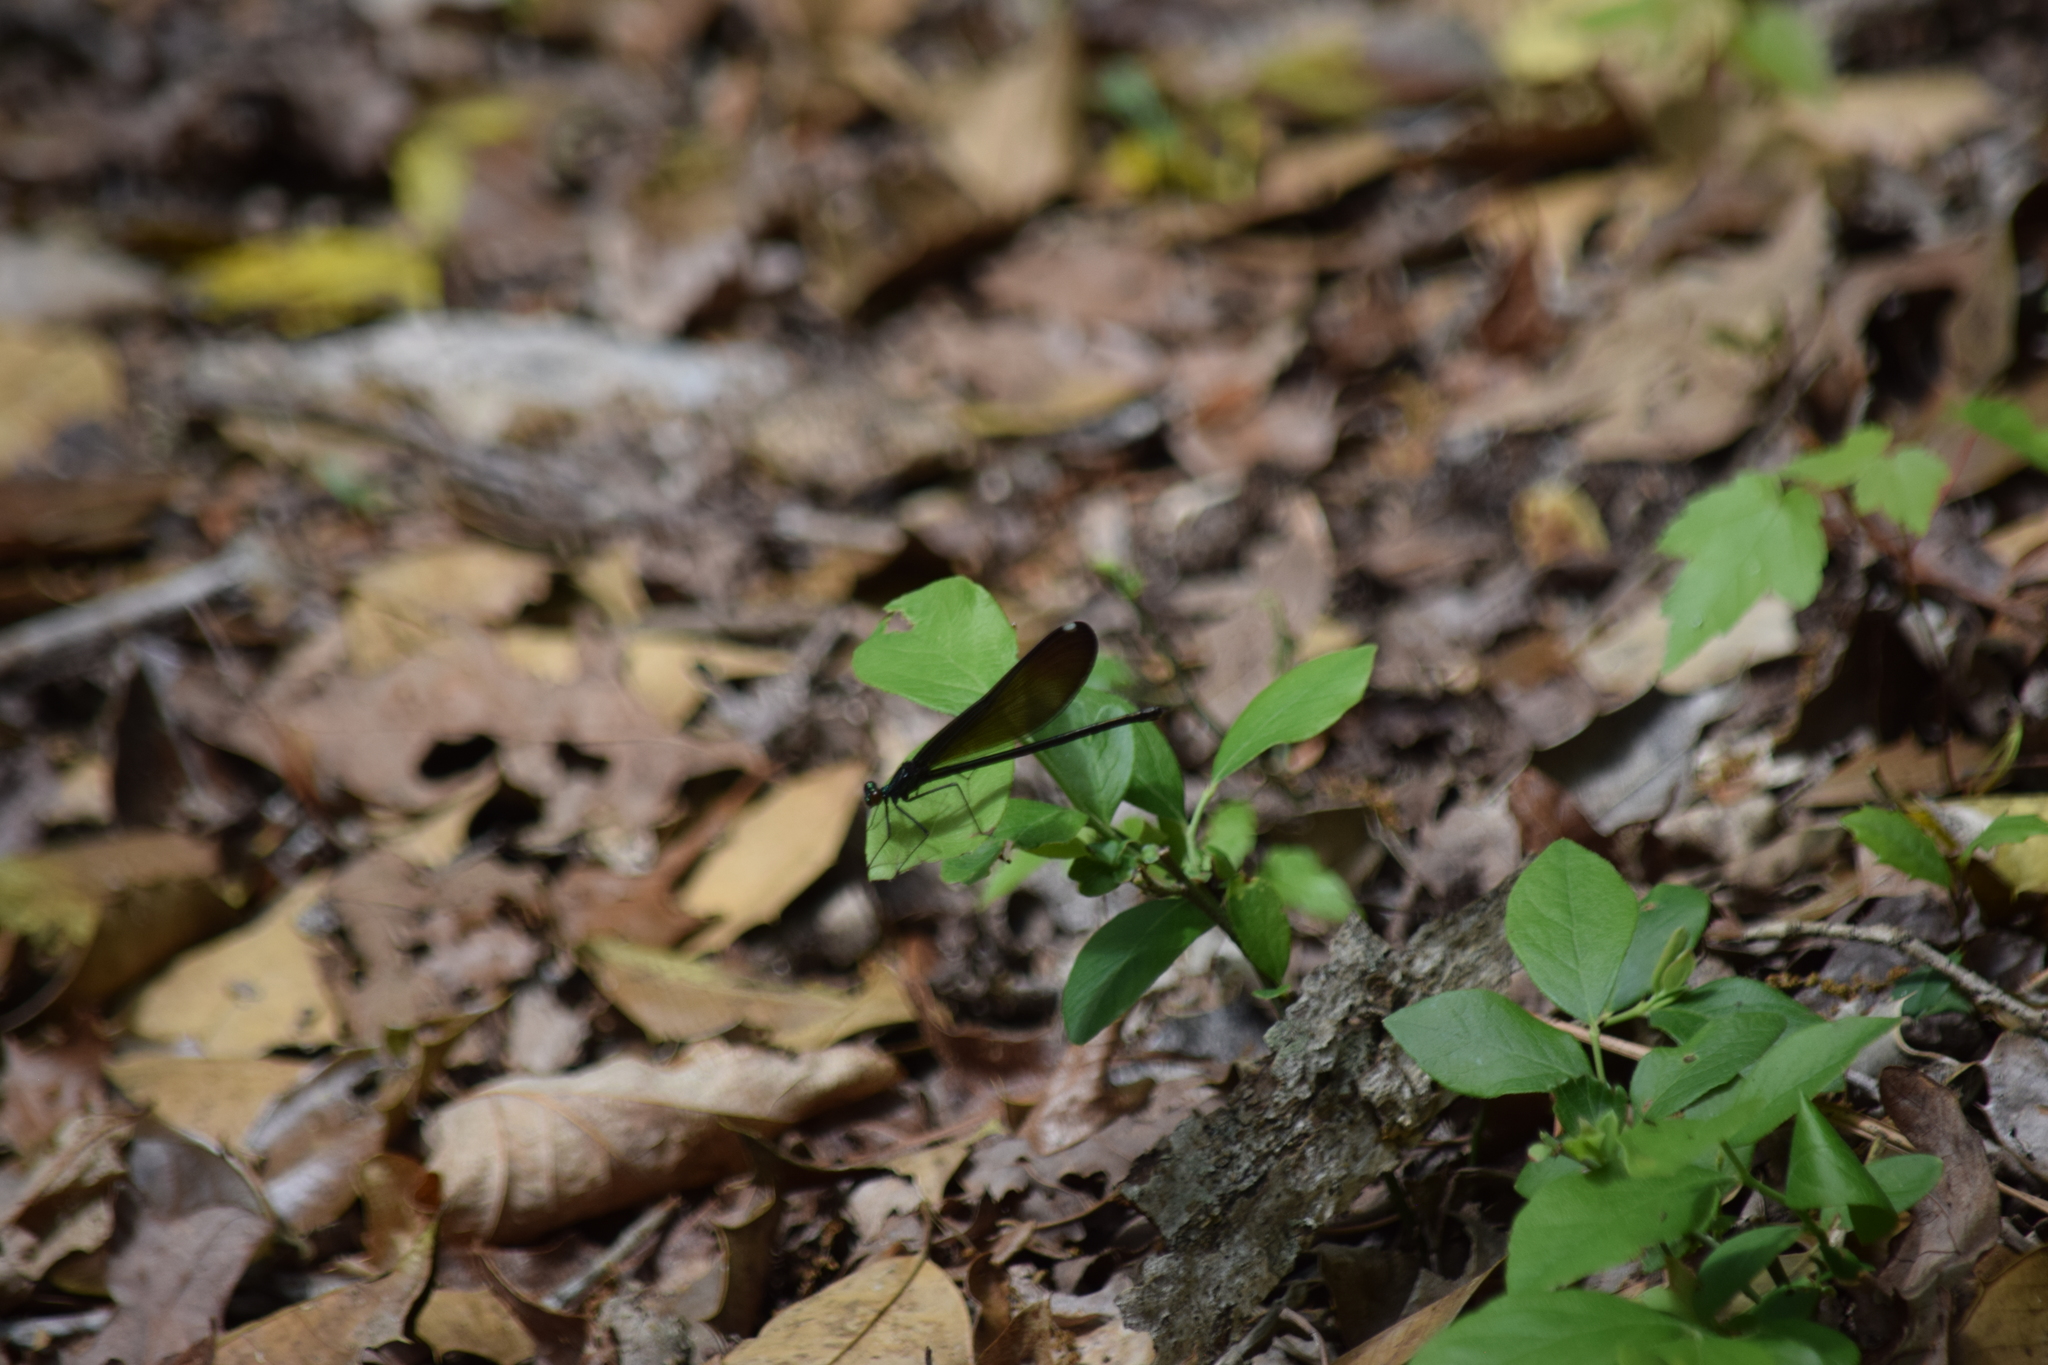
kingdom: Animalia
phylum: Arthropoda
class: Insecta
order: Odonata
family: Calopterygidae
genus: Calopteryx
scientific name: Calopteryx maculata
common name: Ebony jewelwing
